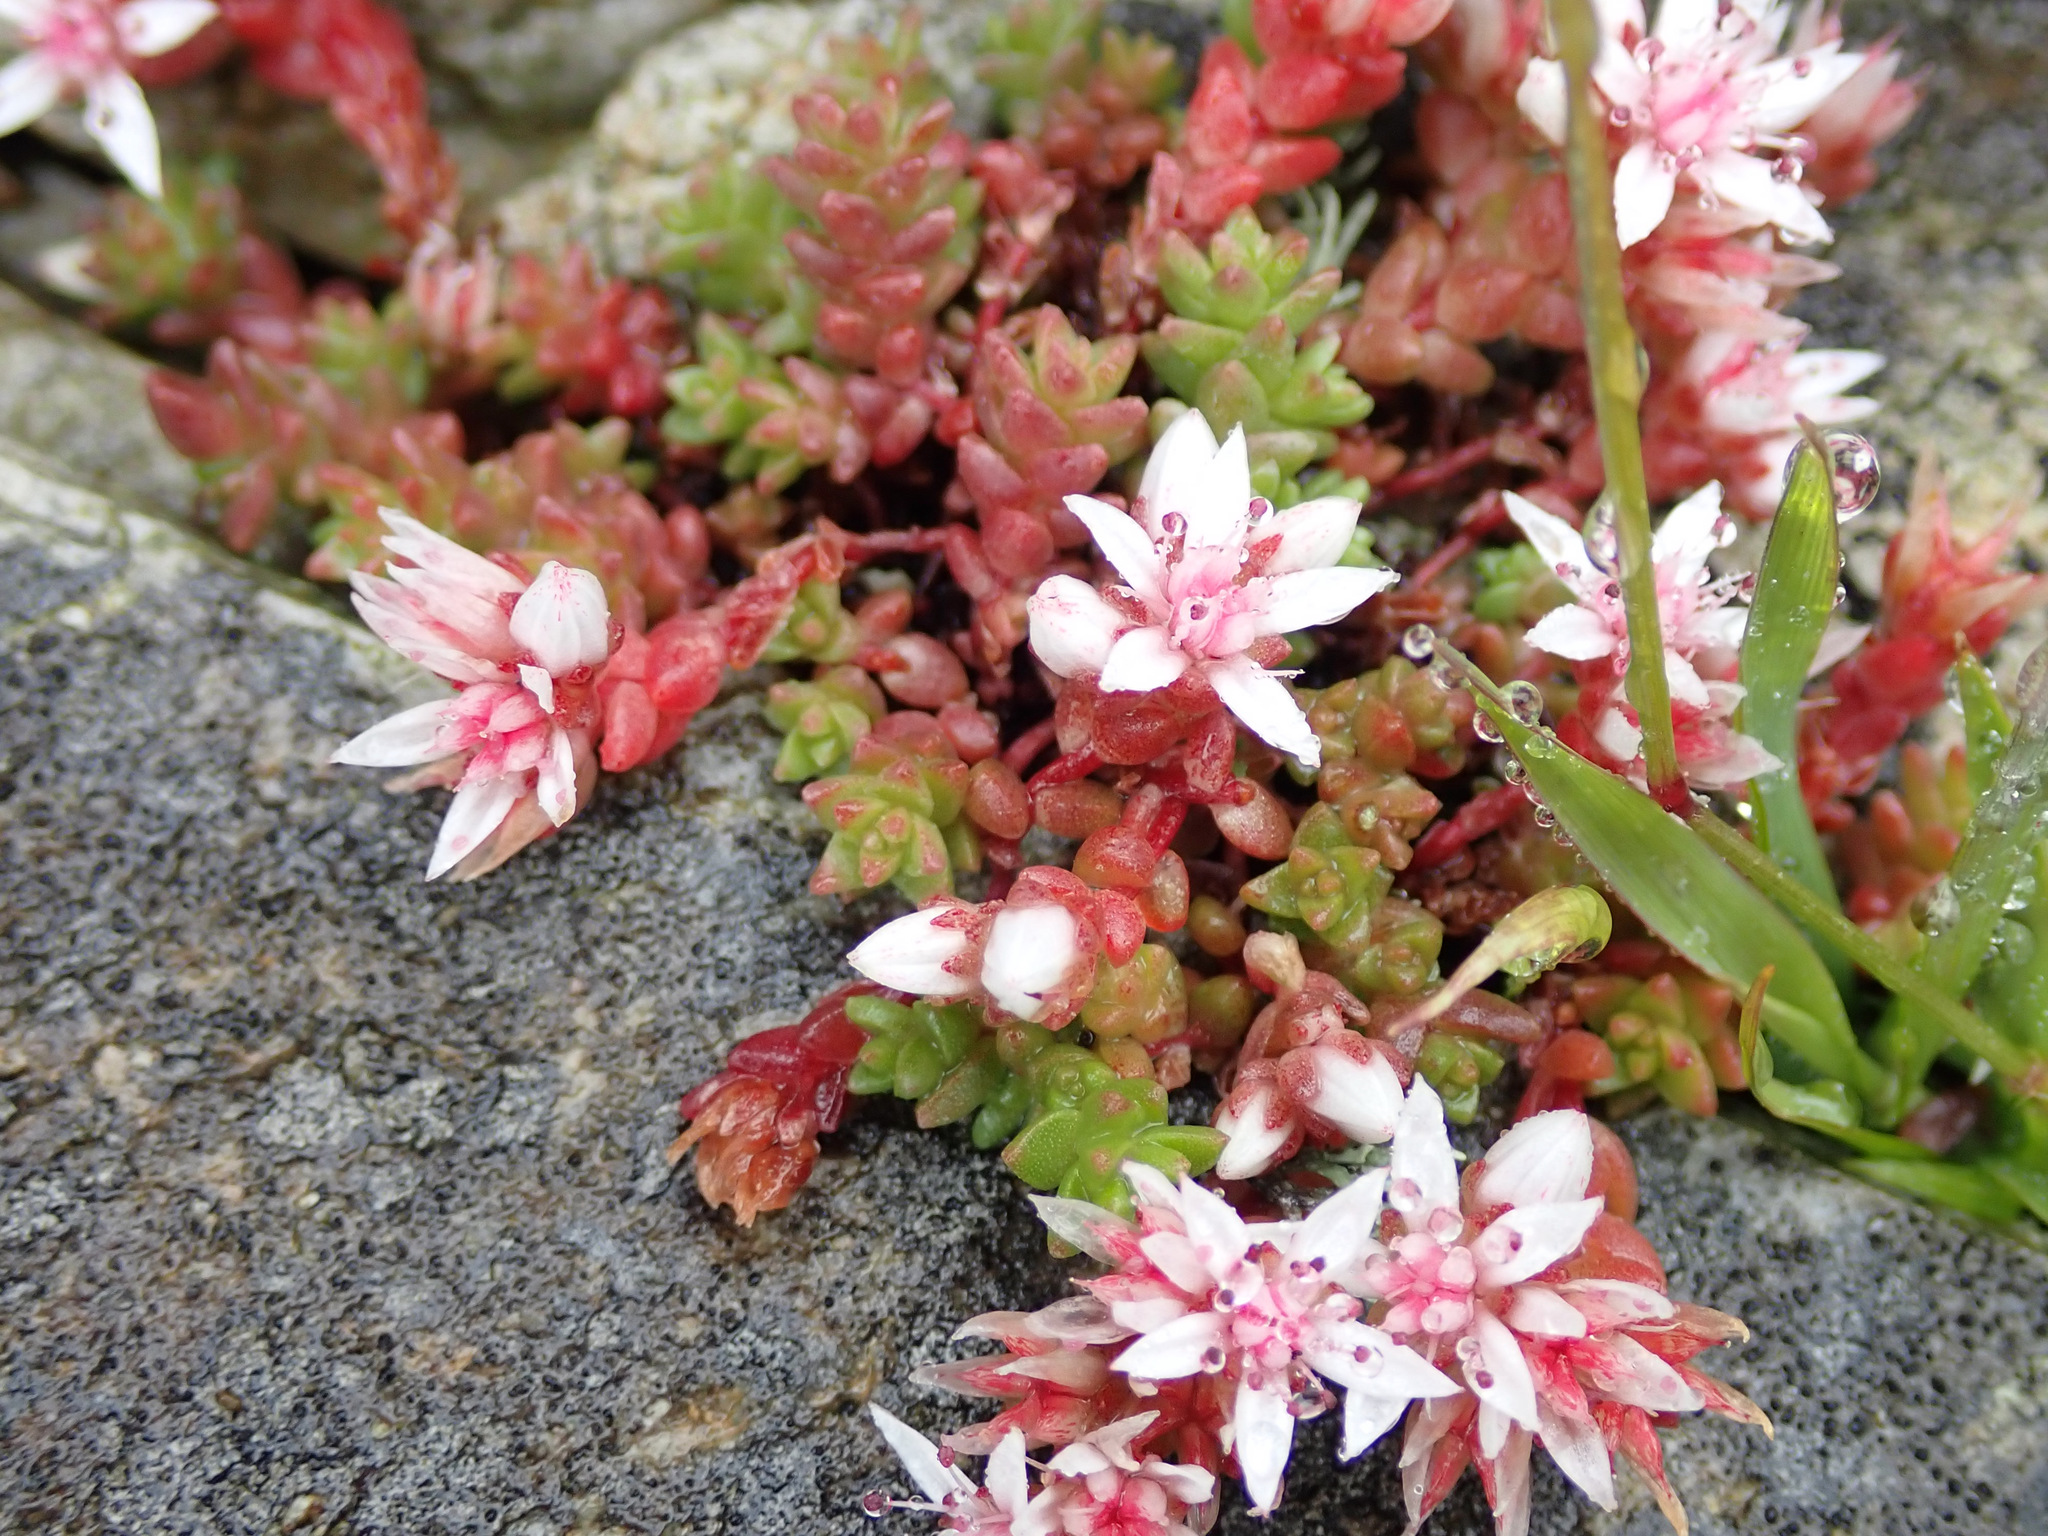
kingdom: Plantae
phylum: Tracheophyta
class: Magnoliopsida
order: Saxifragales
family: Crassulaceae
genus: Sedum
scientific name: Sedum anglicum
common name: English stonecrop
